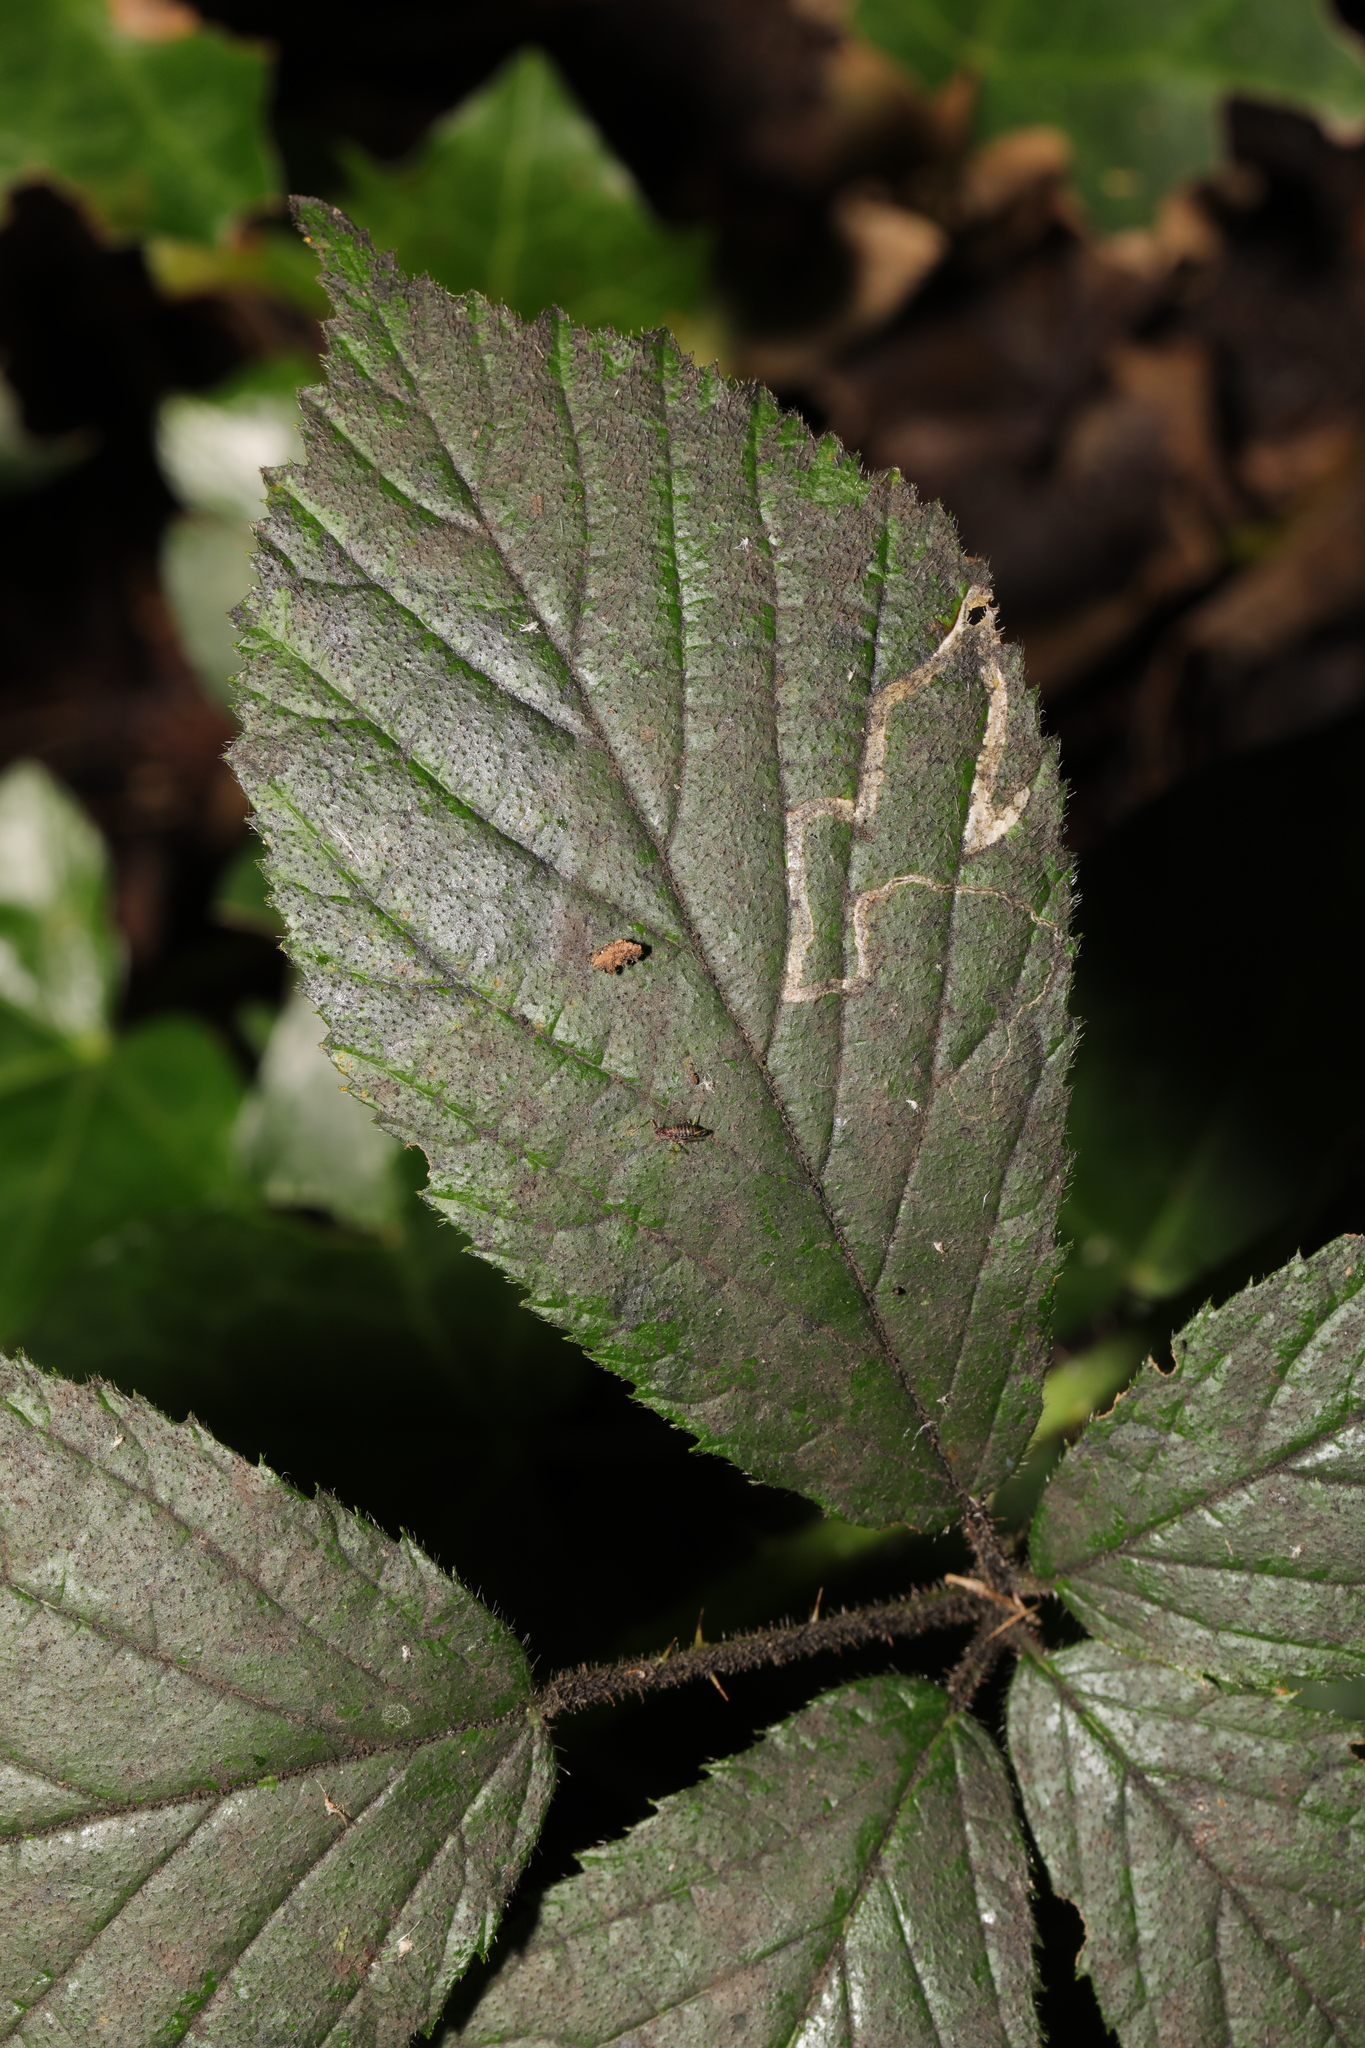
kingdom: Animalia
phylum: Arthropoda
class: Insecta
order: Lepidoptera
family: Nepticulidae
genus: Stigmella
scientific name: Stigmella aurella
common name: Golden pigmy
